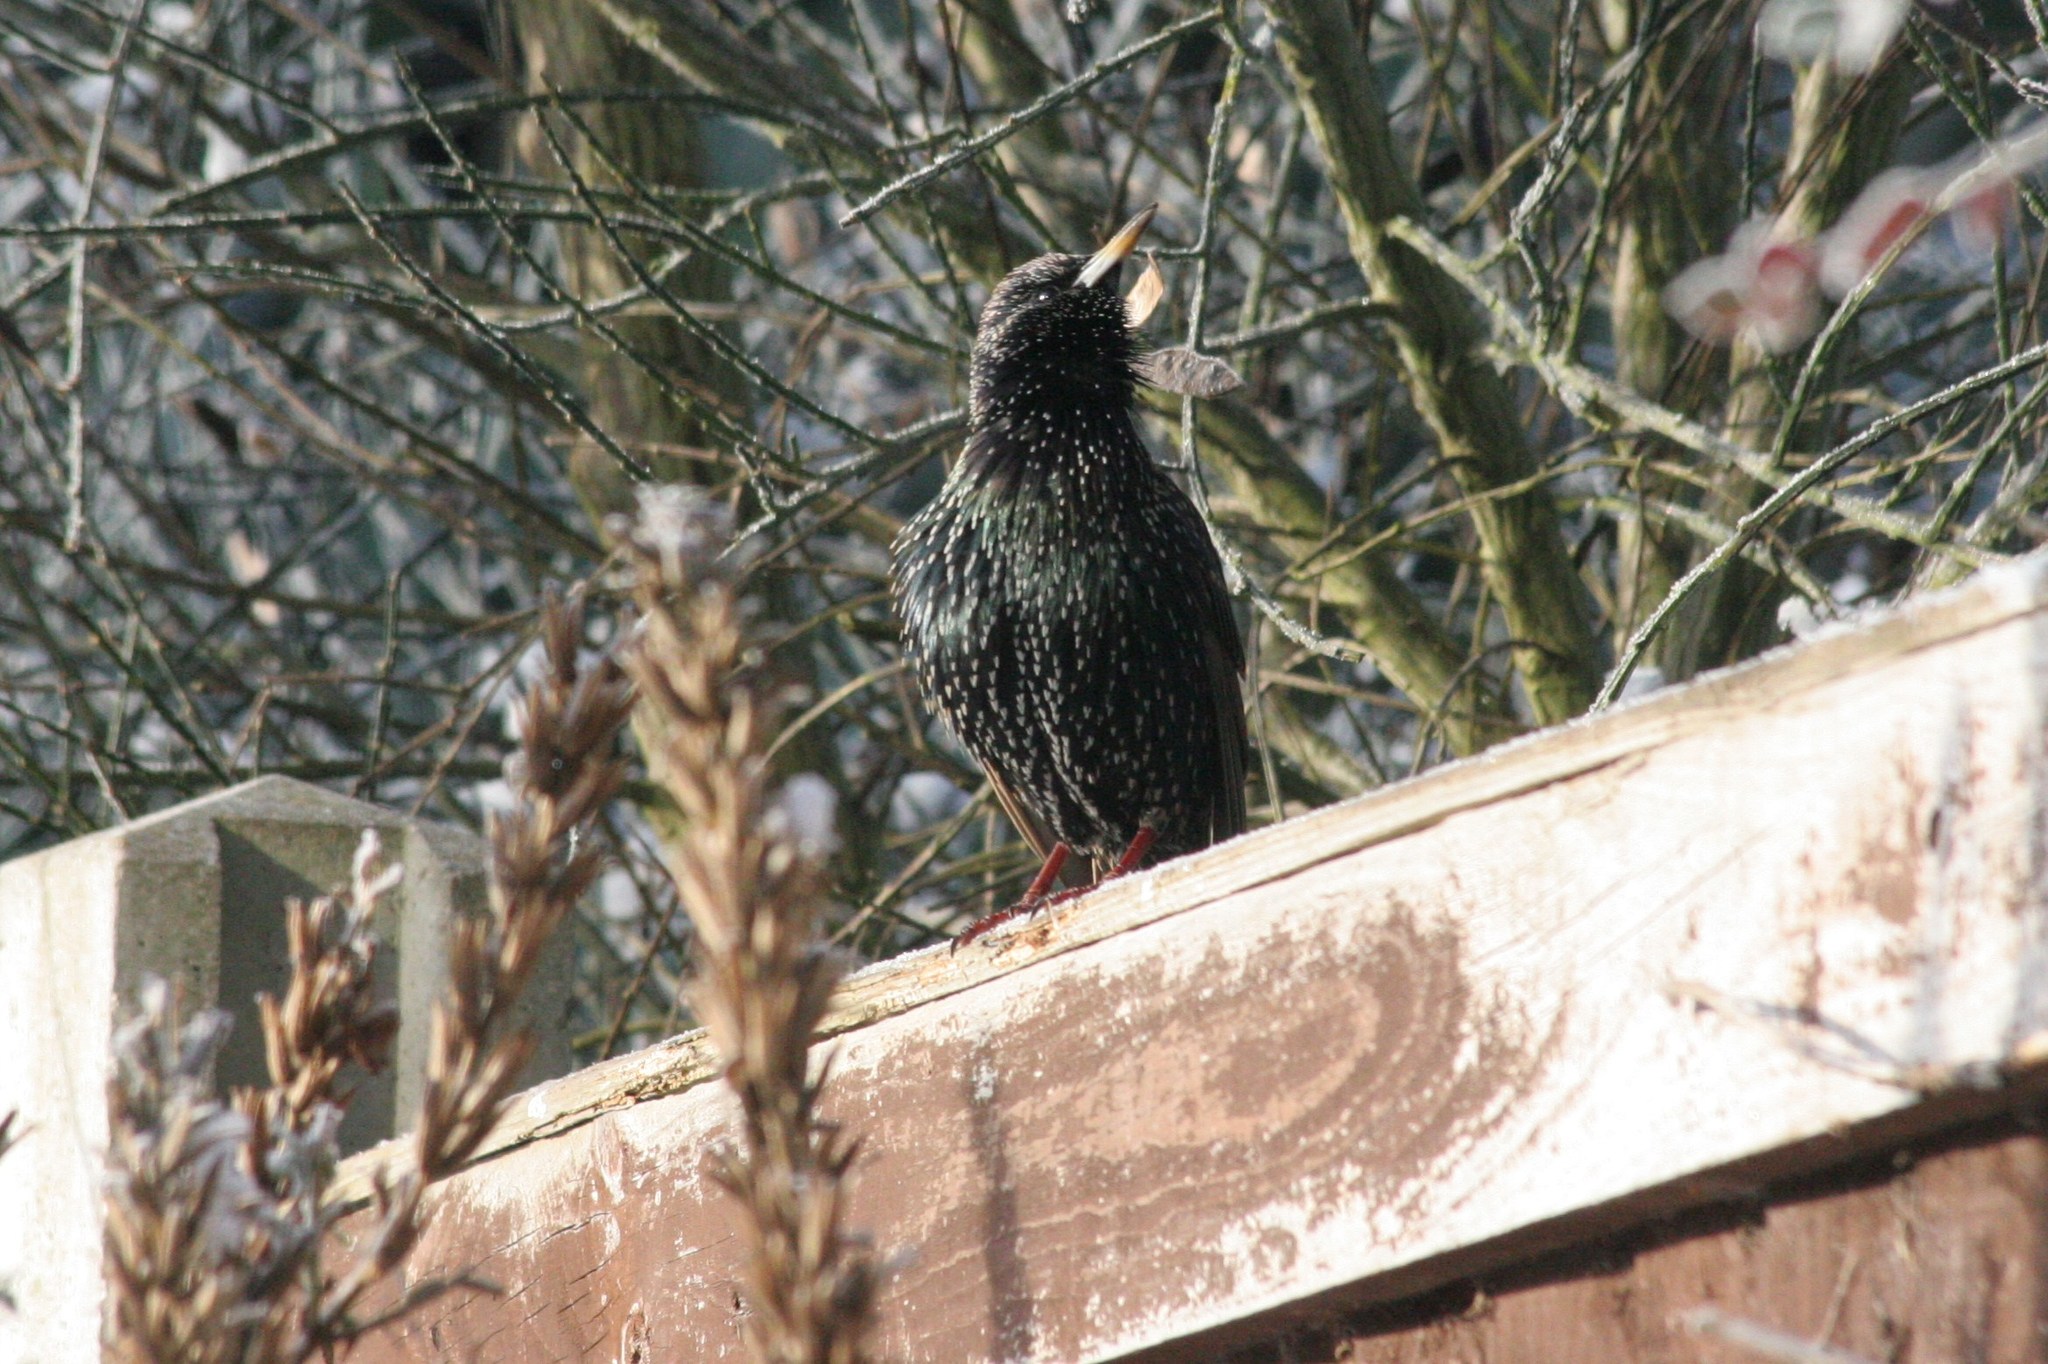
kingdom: Animalia
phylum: Chordata
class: Aves
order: Passeriformes
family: Sturnidae
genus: Sturnus
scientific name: Sturnus vulgaris
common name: Common starling
